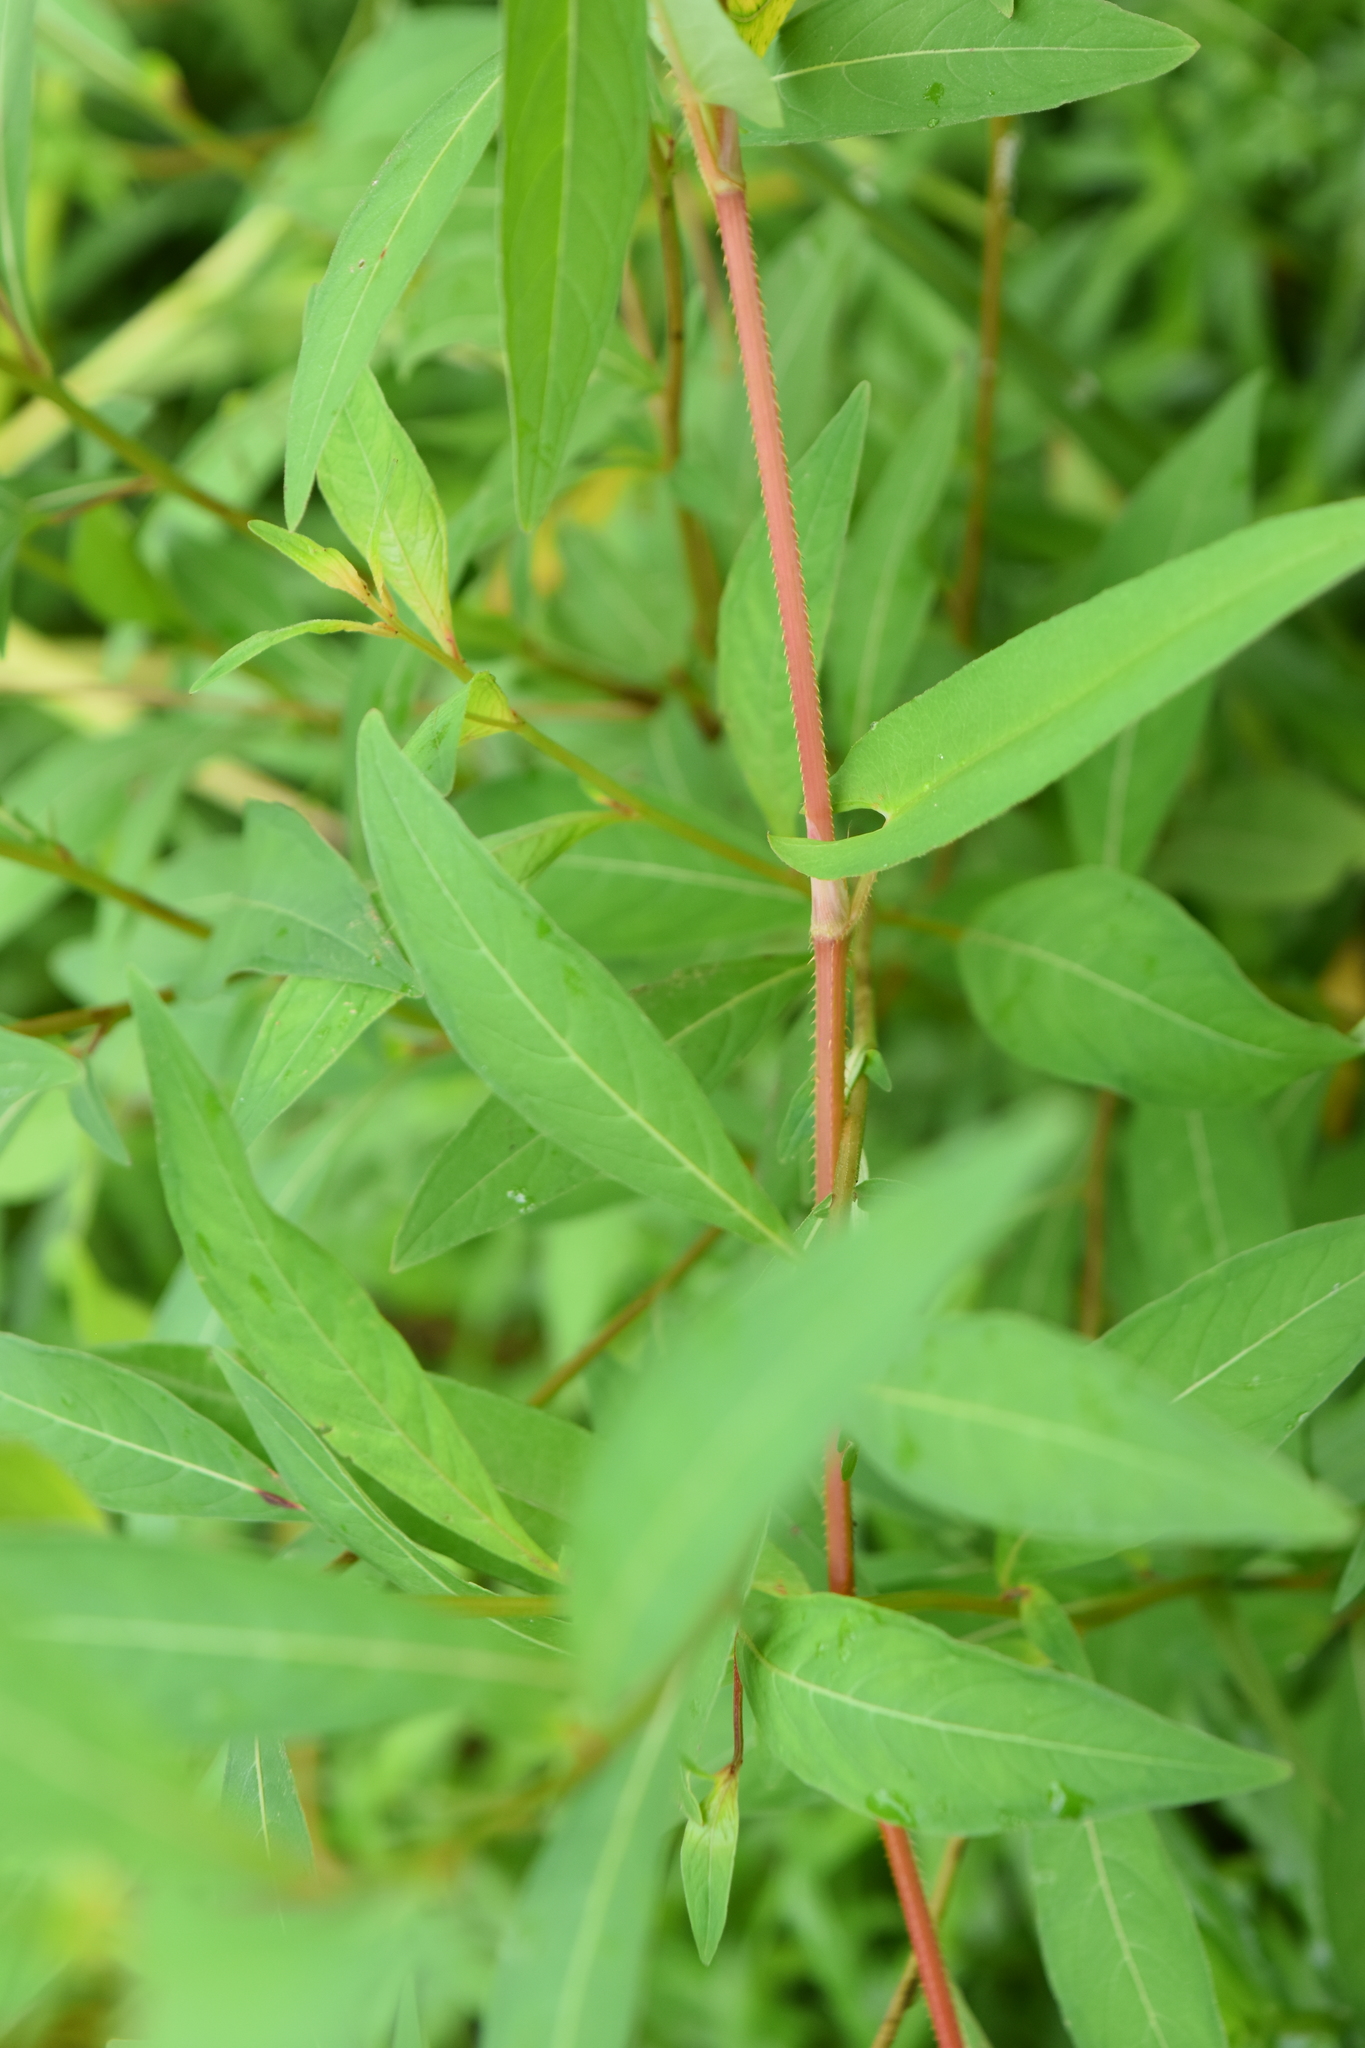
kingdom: Plantae
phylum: Tracheophyta
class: Magnoliopsida
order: Caryophyllales
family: Polygonaceae
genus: Persicaria
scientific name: Persicaria sagittata
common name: American tearthumb
